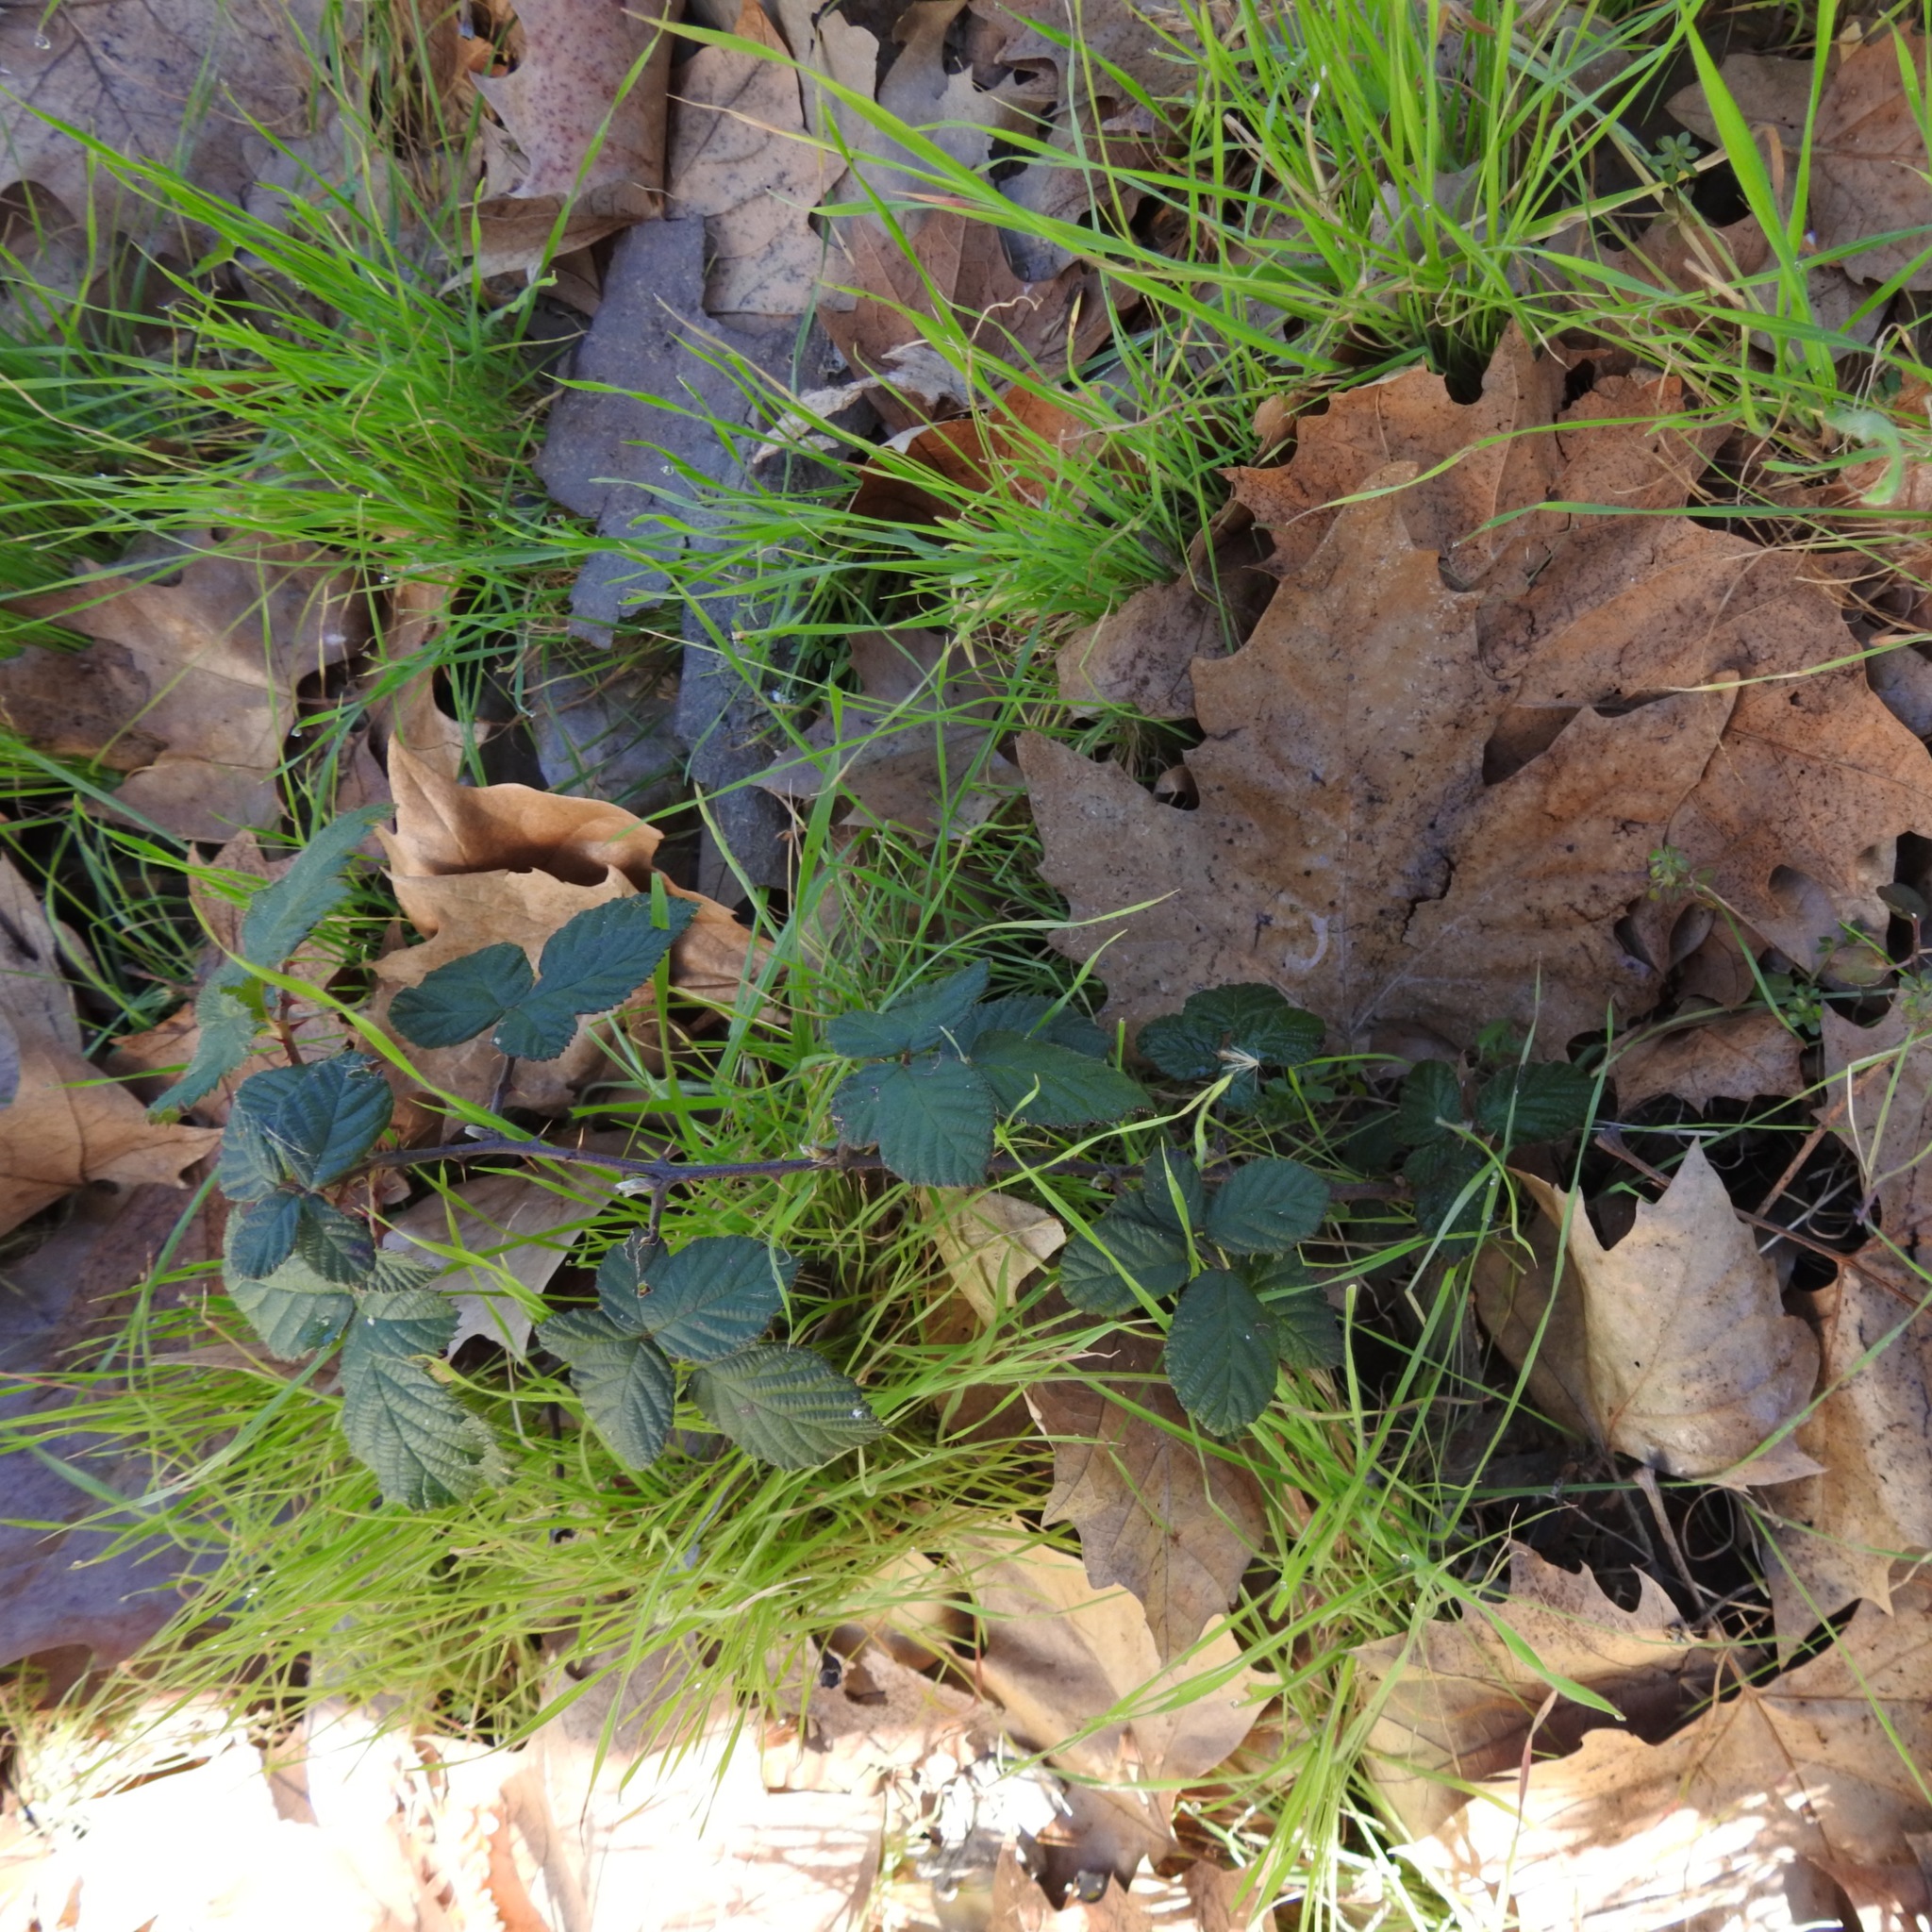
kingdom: Plantae
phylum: Tracheophyta
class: Magnoliopsida
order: Rosales
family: Rosaceae
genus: Rubus
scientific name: Rubus armeniacus
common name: Himalayan blackberry
